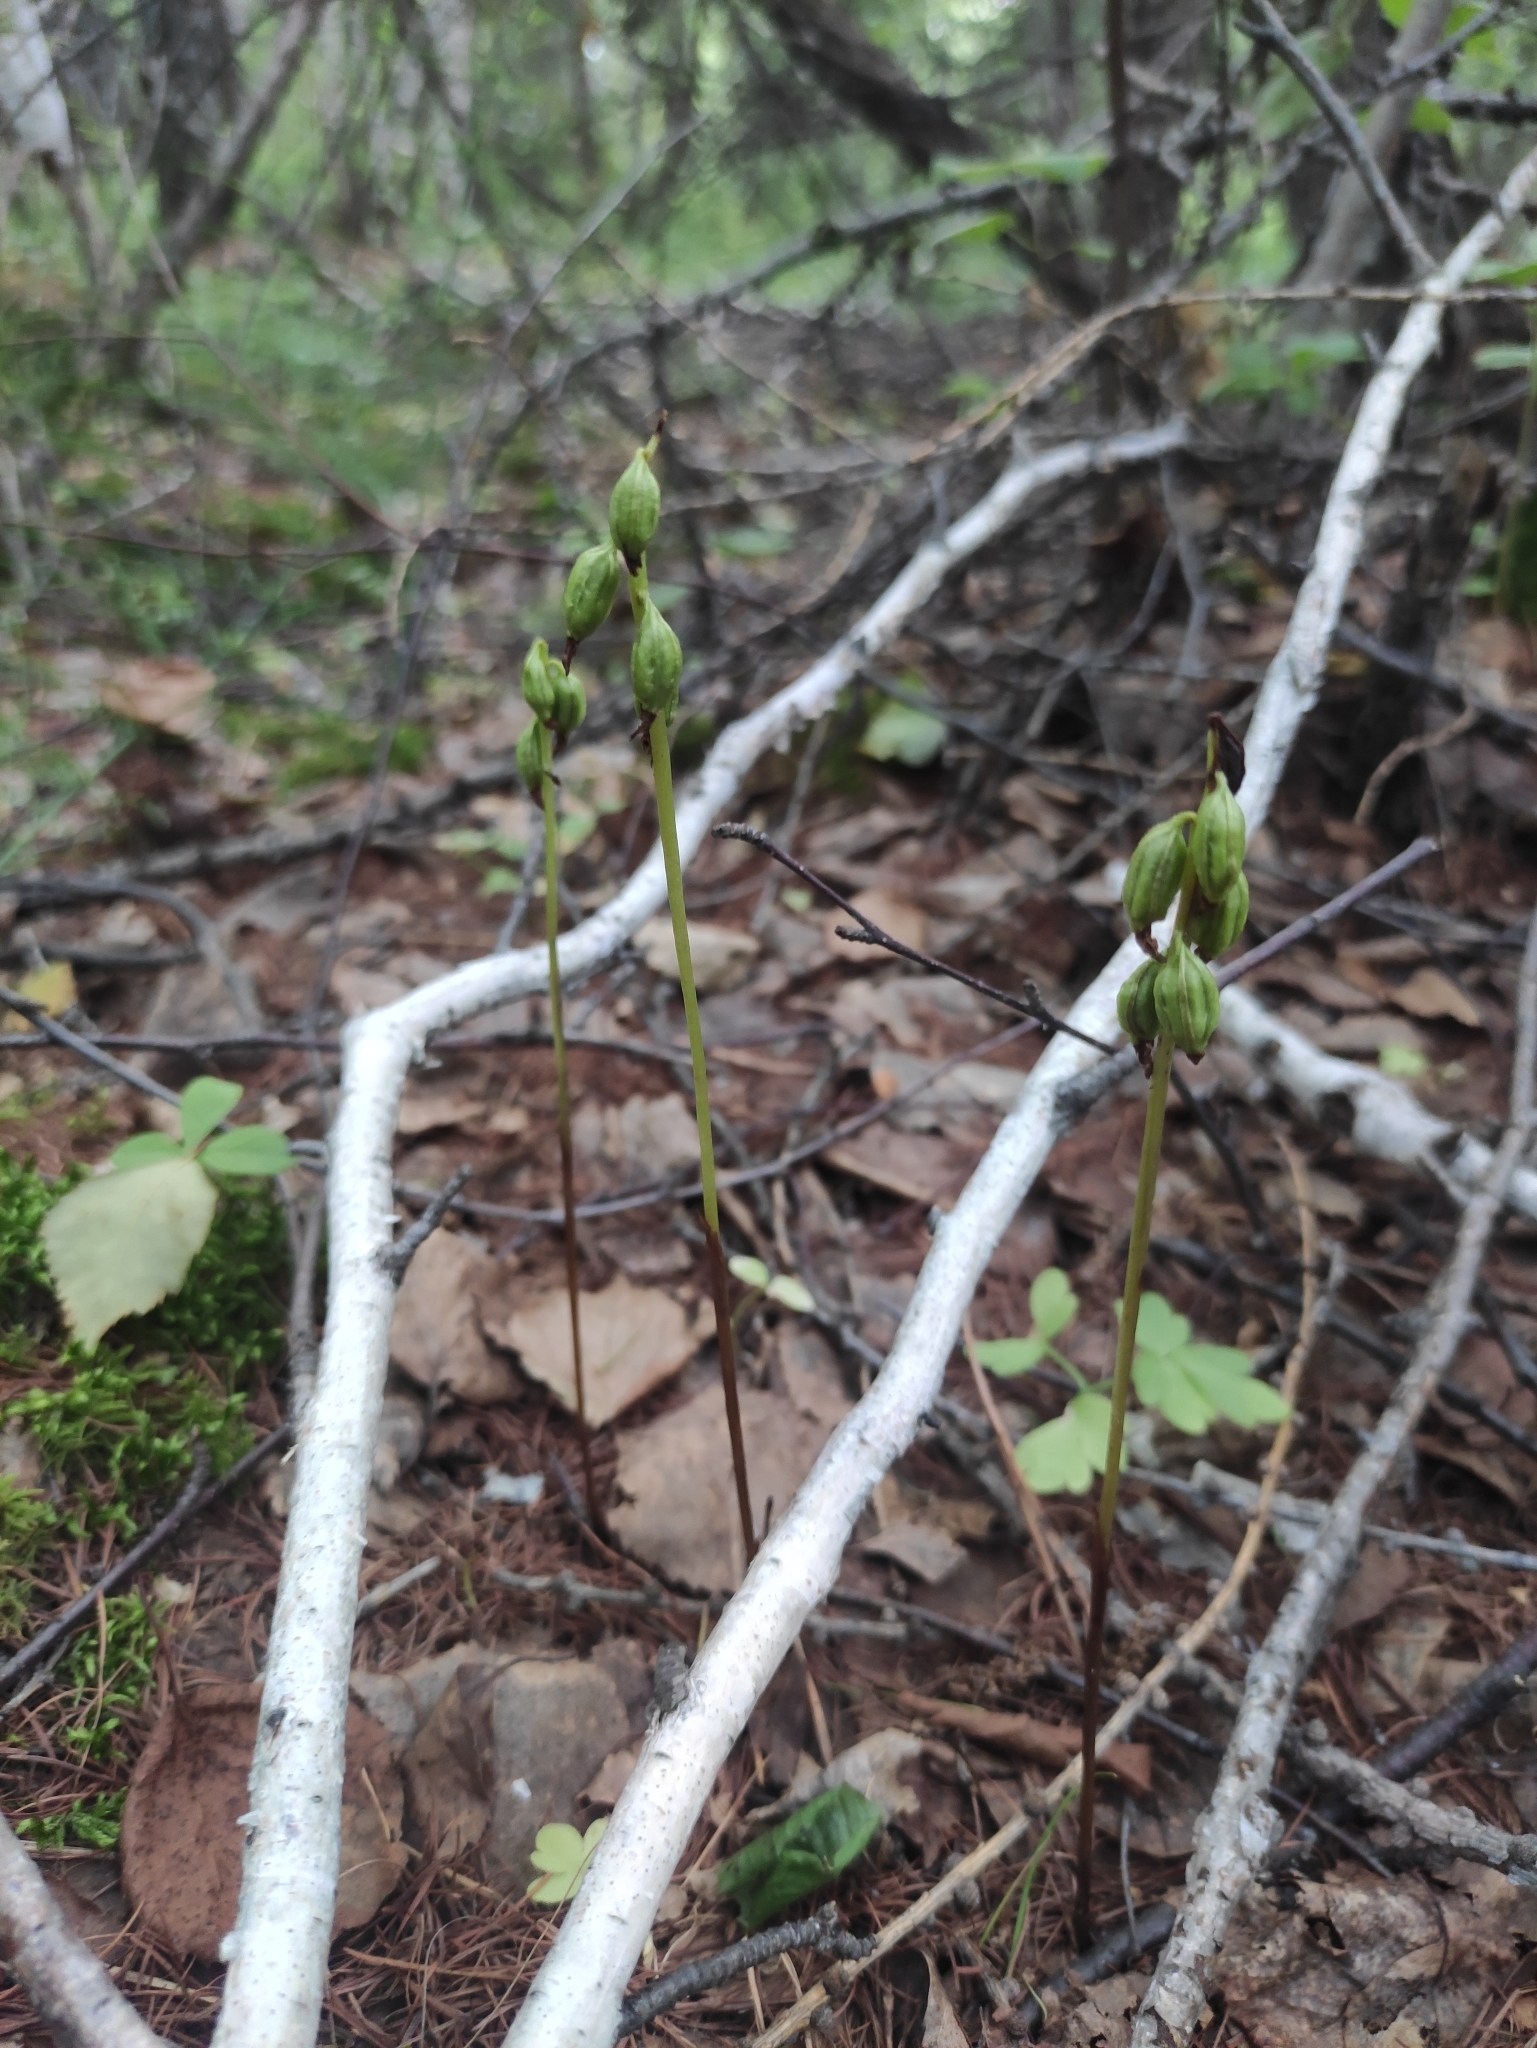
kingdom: Plantae
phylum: Tracheophyta
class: Liliopsida
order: Asparagales
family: Orchidaceae
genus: Corallorhiza
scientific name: Corallorhiza trifida
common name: Yellow coralroot
